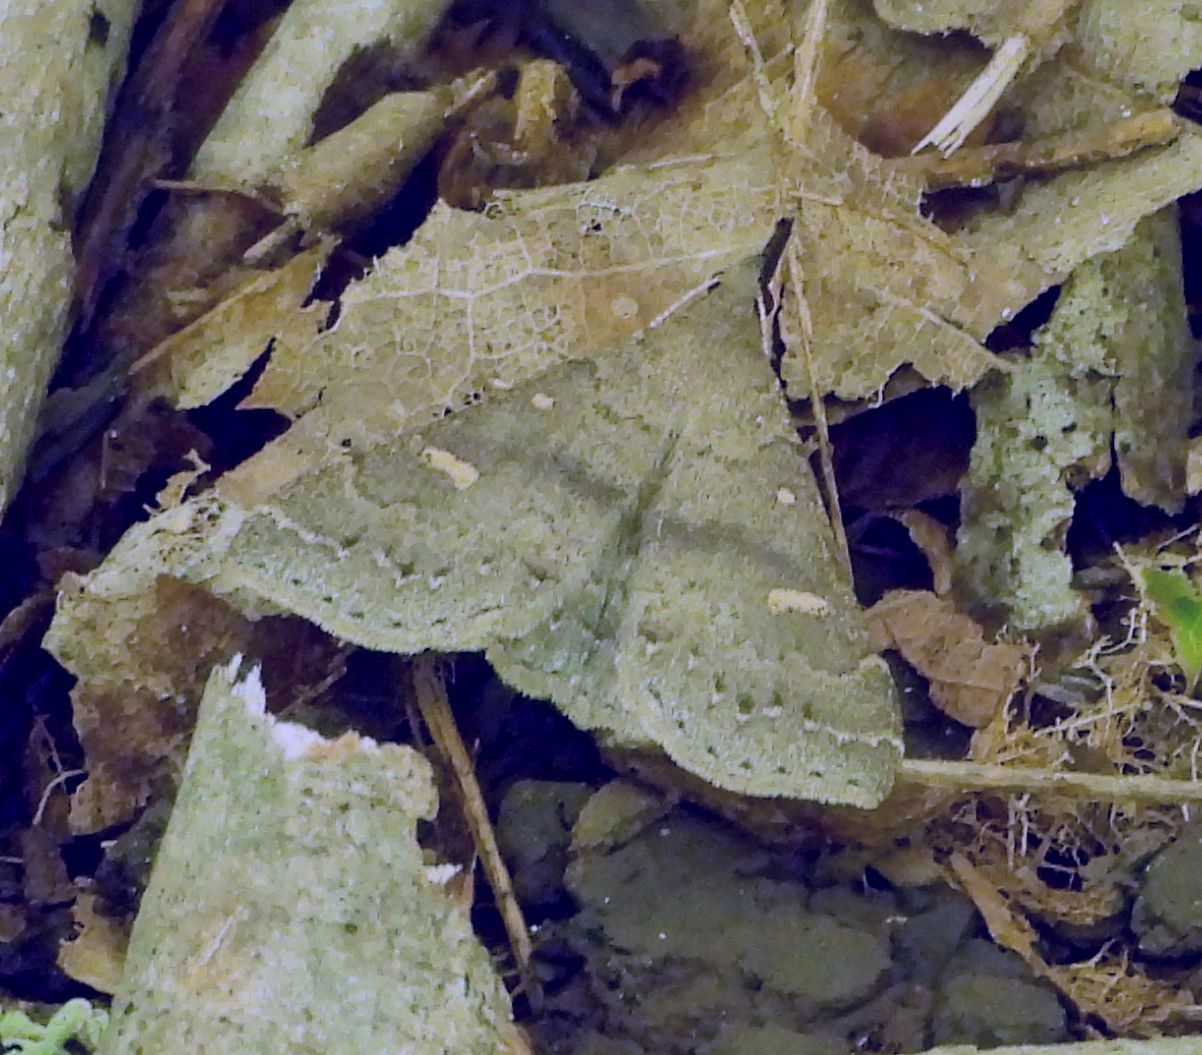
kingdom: Animalia
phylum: Arthropoda
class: Insecta
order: Lepidoptera
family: Erebidae
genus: Renia
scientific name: Renia adspergillus
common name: Speckled renia moth
